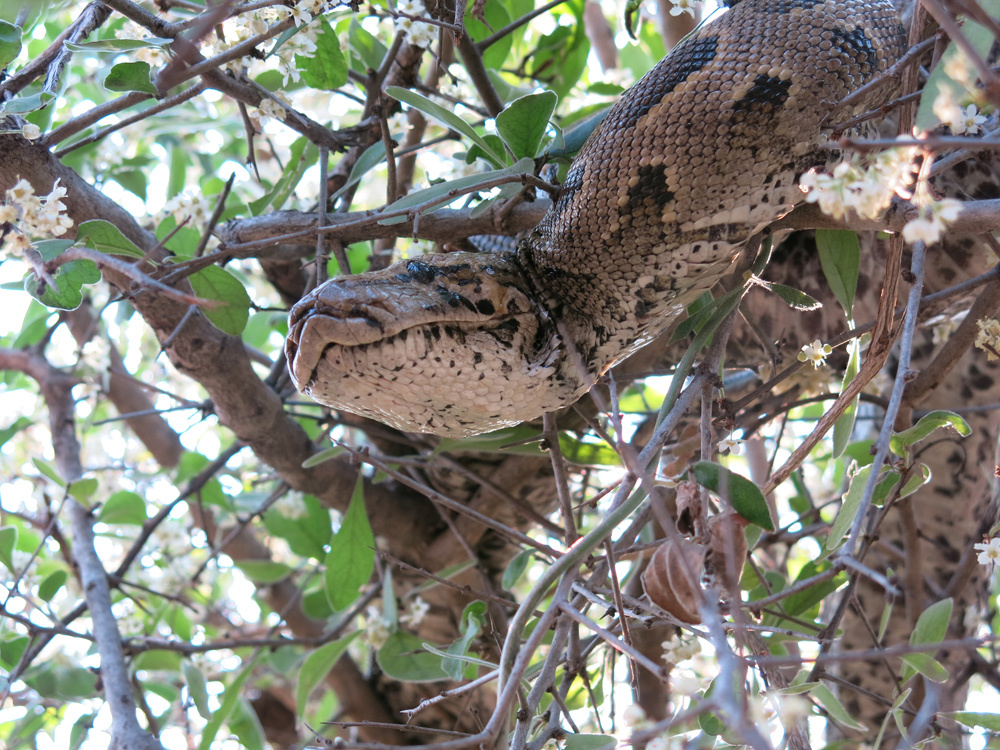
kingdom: Animalia
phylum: Chordata
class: Squamata
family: Pythonidae
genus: Python
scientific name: Python natalensis
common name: Southern african rock python
